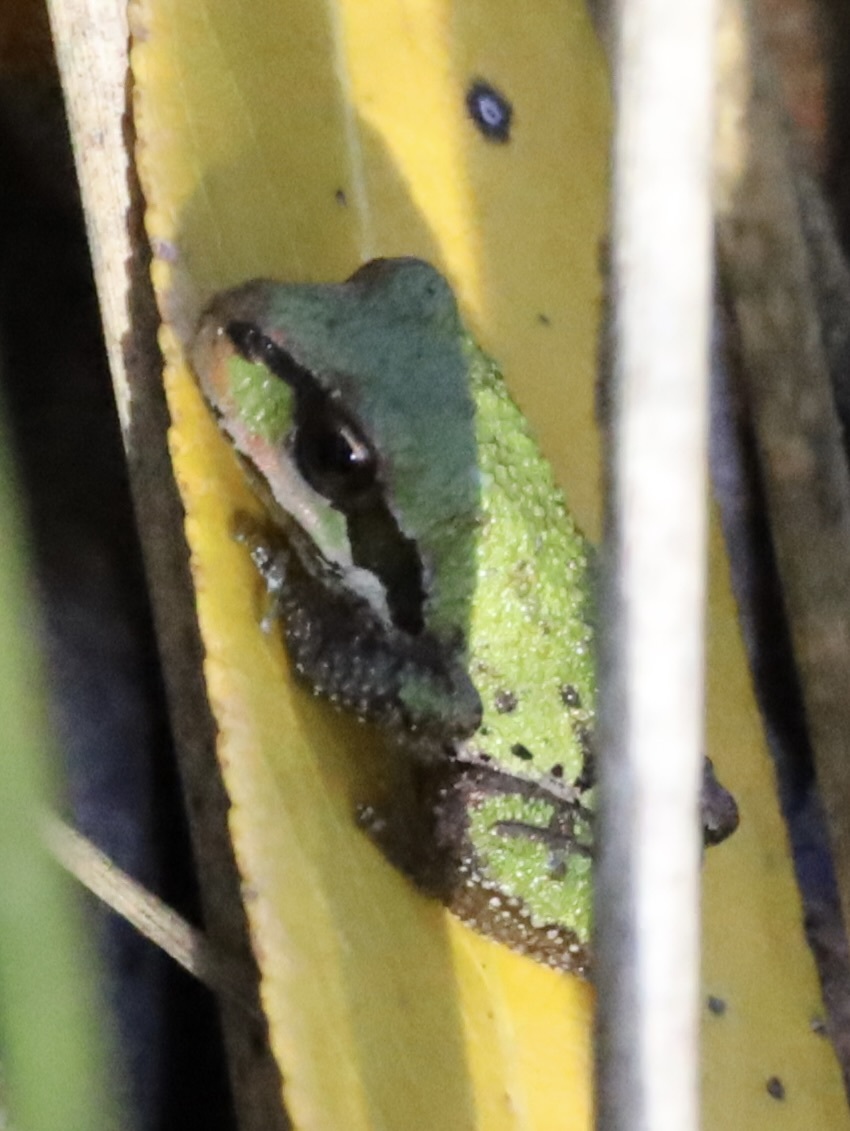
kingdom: Animalia
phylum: Chordata
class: Amphibia
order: Anura
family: Hylidae
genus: Pseudacris
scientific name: Pseudacris regilla
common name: Pacific chorus frog
